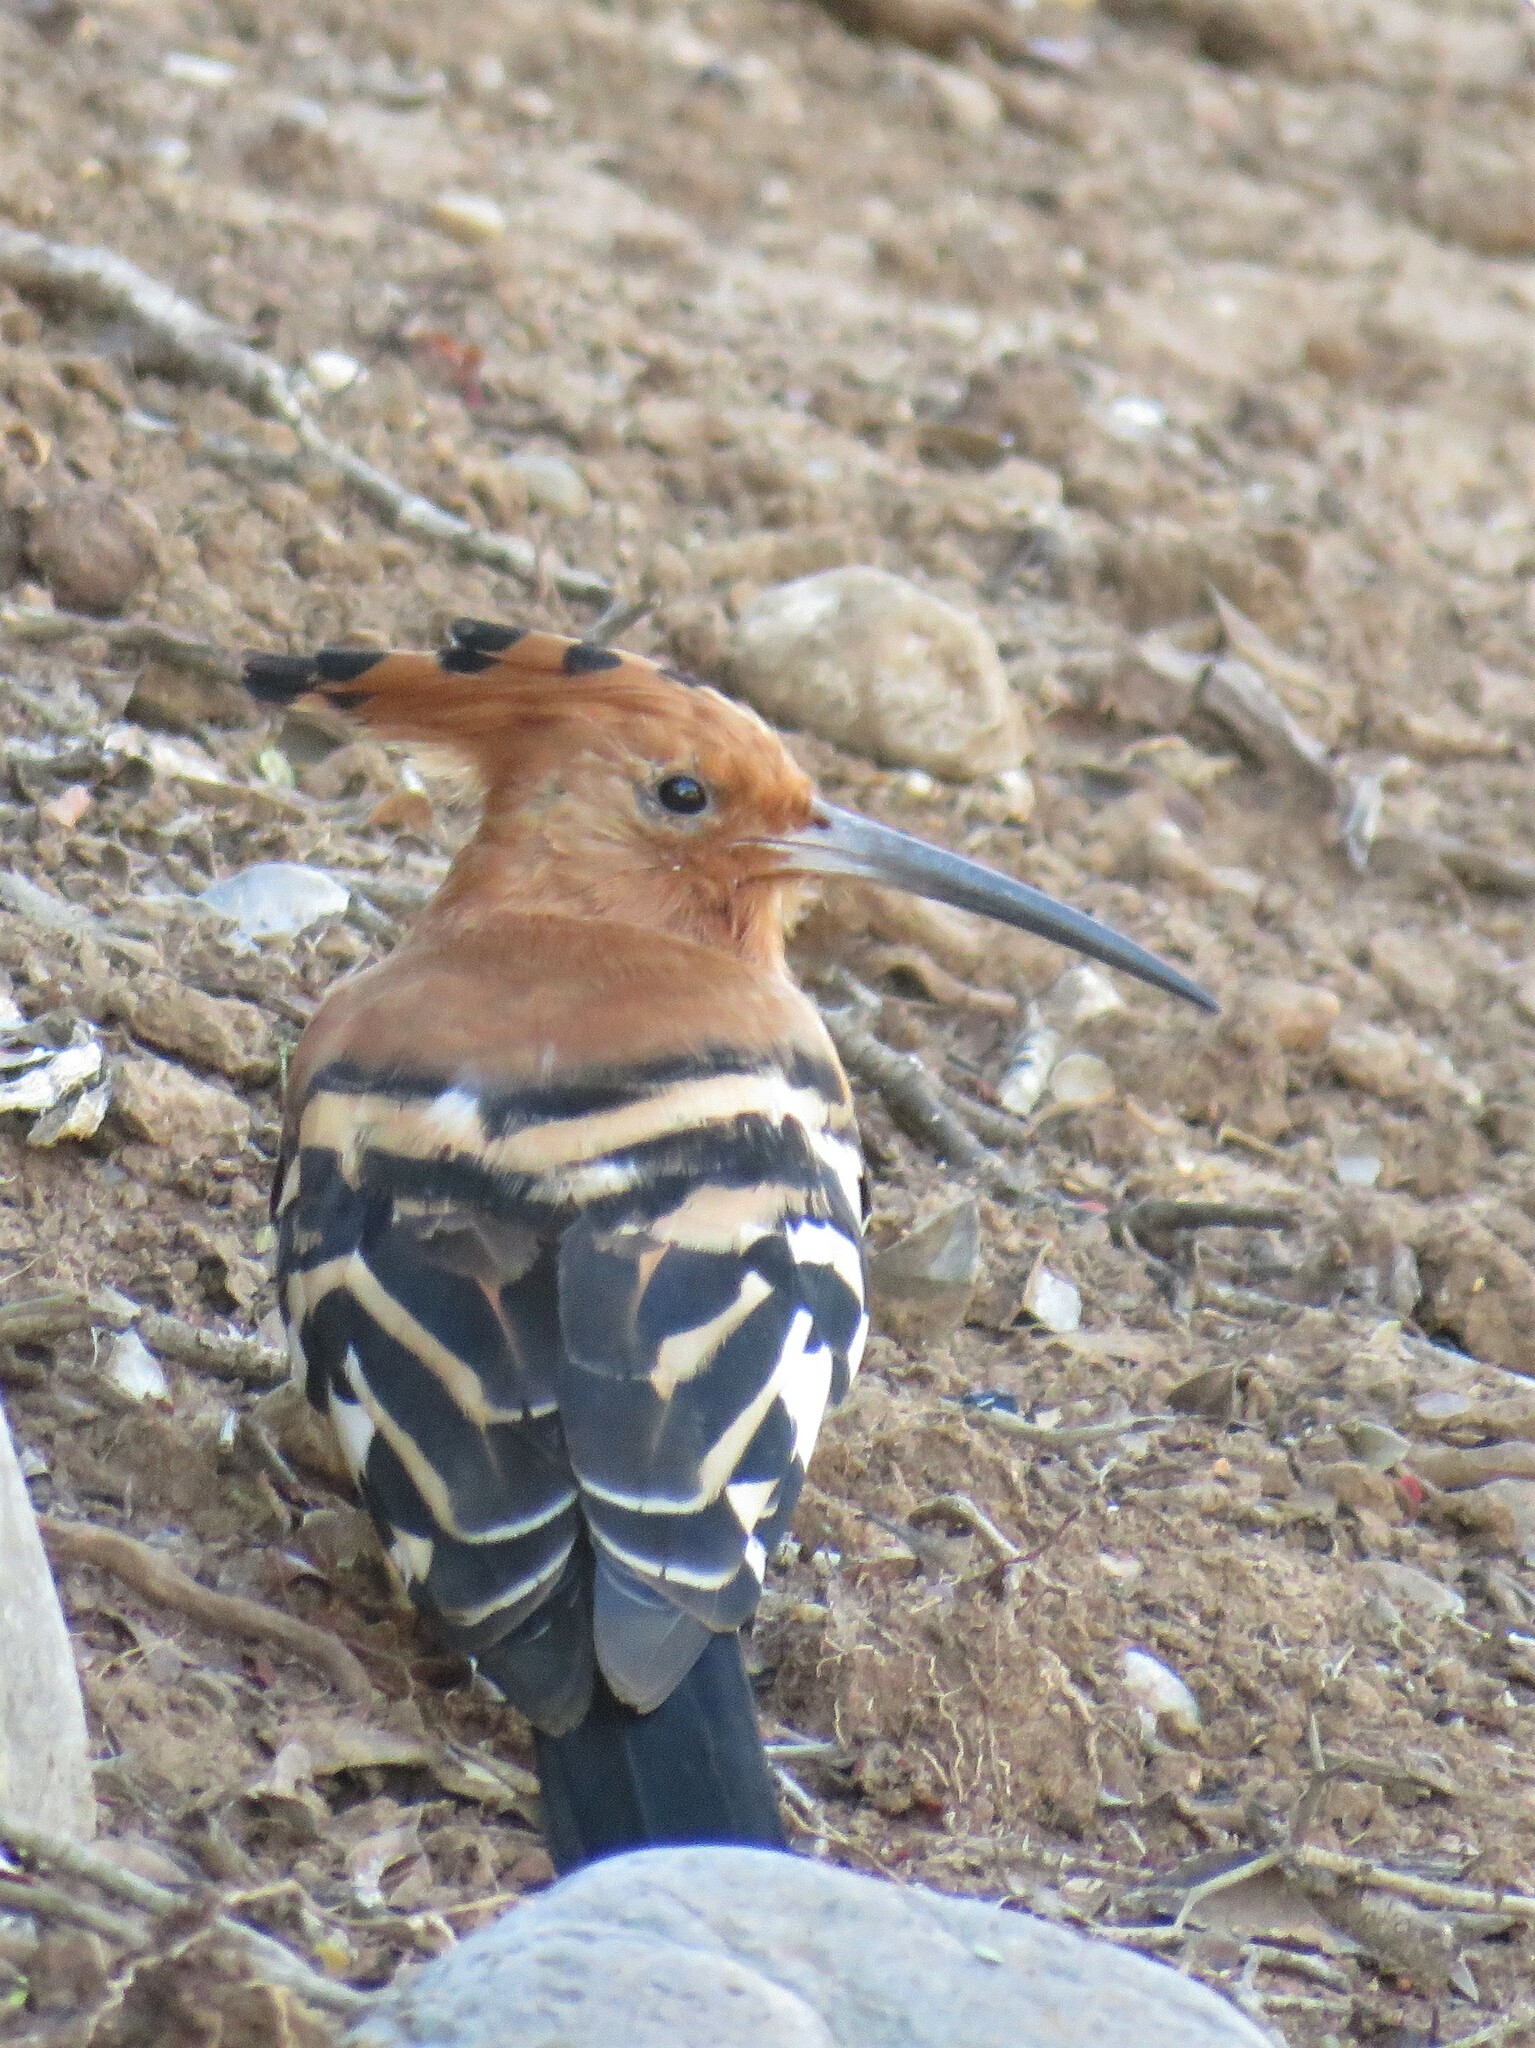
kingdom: Animalia
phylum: Chordata
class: Aves
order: Bucerotiformes
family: Upupidae
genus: Upupa
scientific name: Upupa africana
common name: African hoopoe
